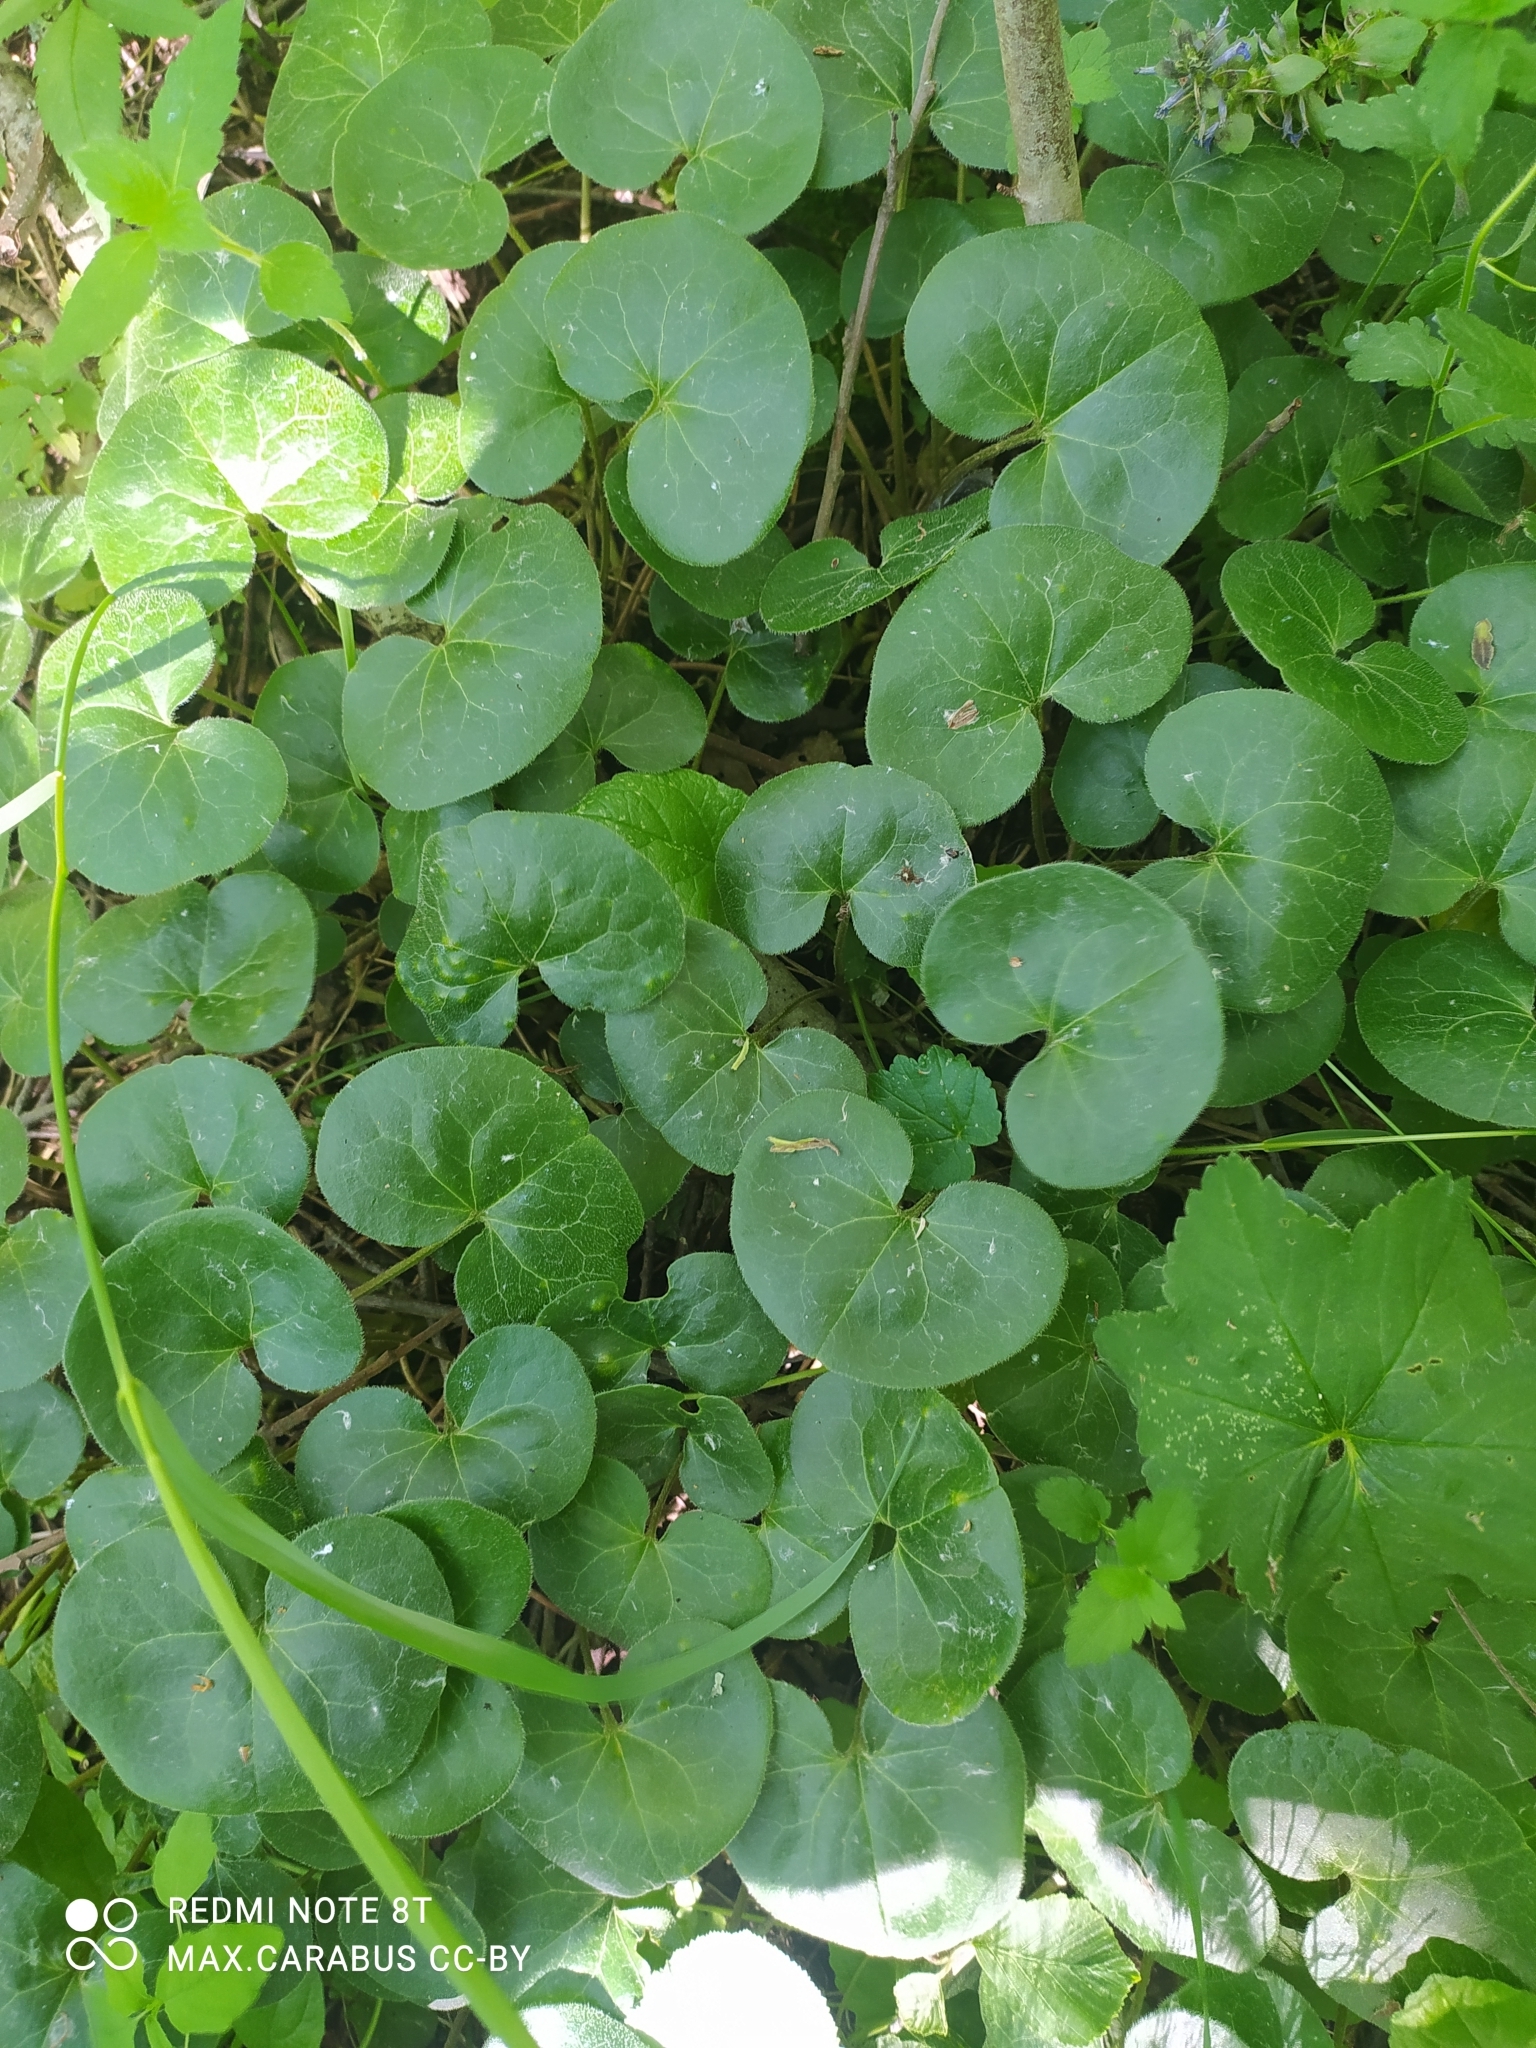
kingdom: Plantae
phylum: Tracheophyta
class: Magnoliopsida
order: Piperales
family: Aristolochiaceae
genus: Asarum
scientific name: Asarum europaeum
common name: Asarabacca
